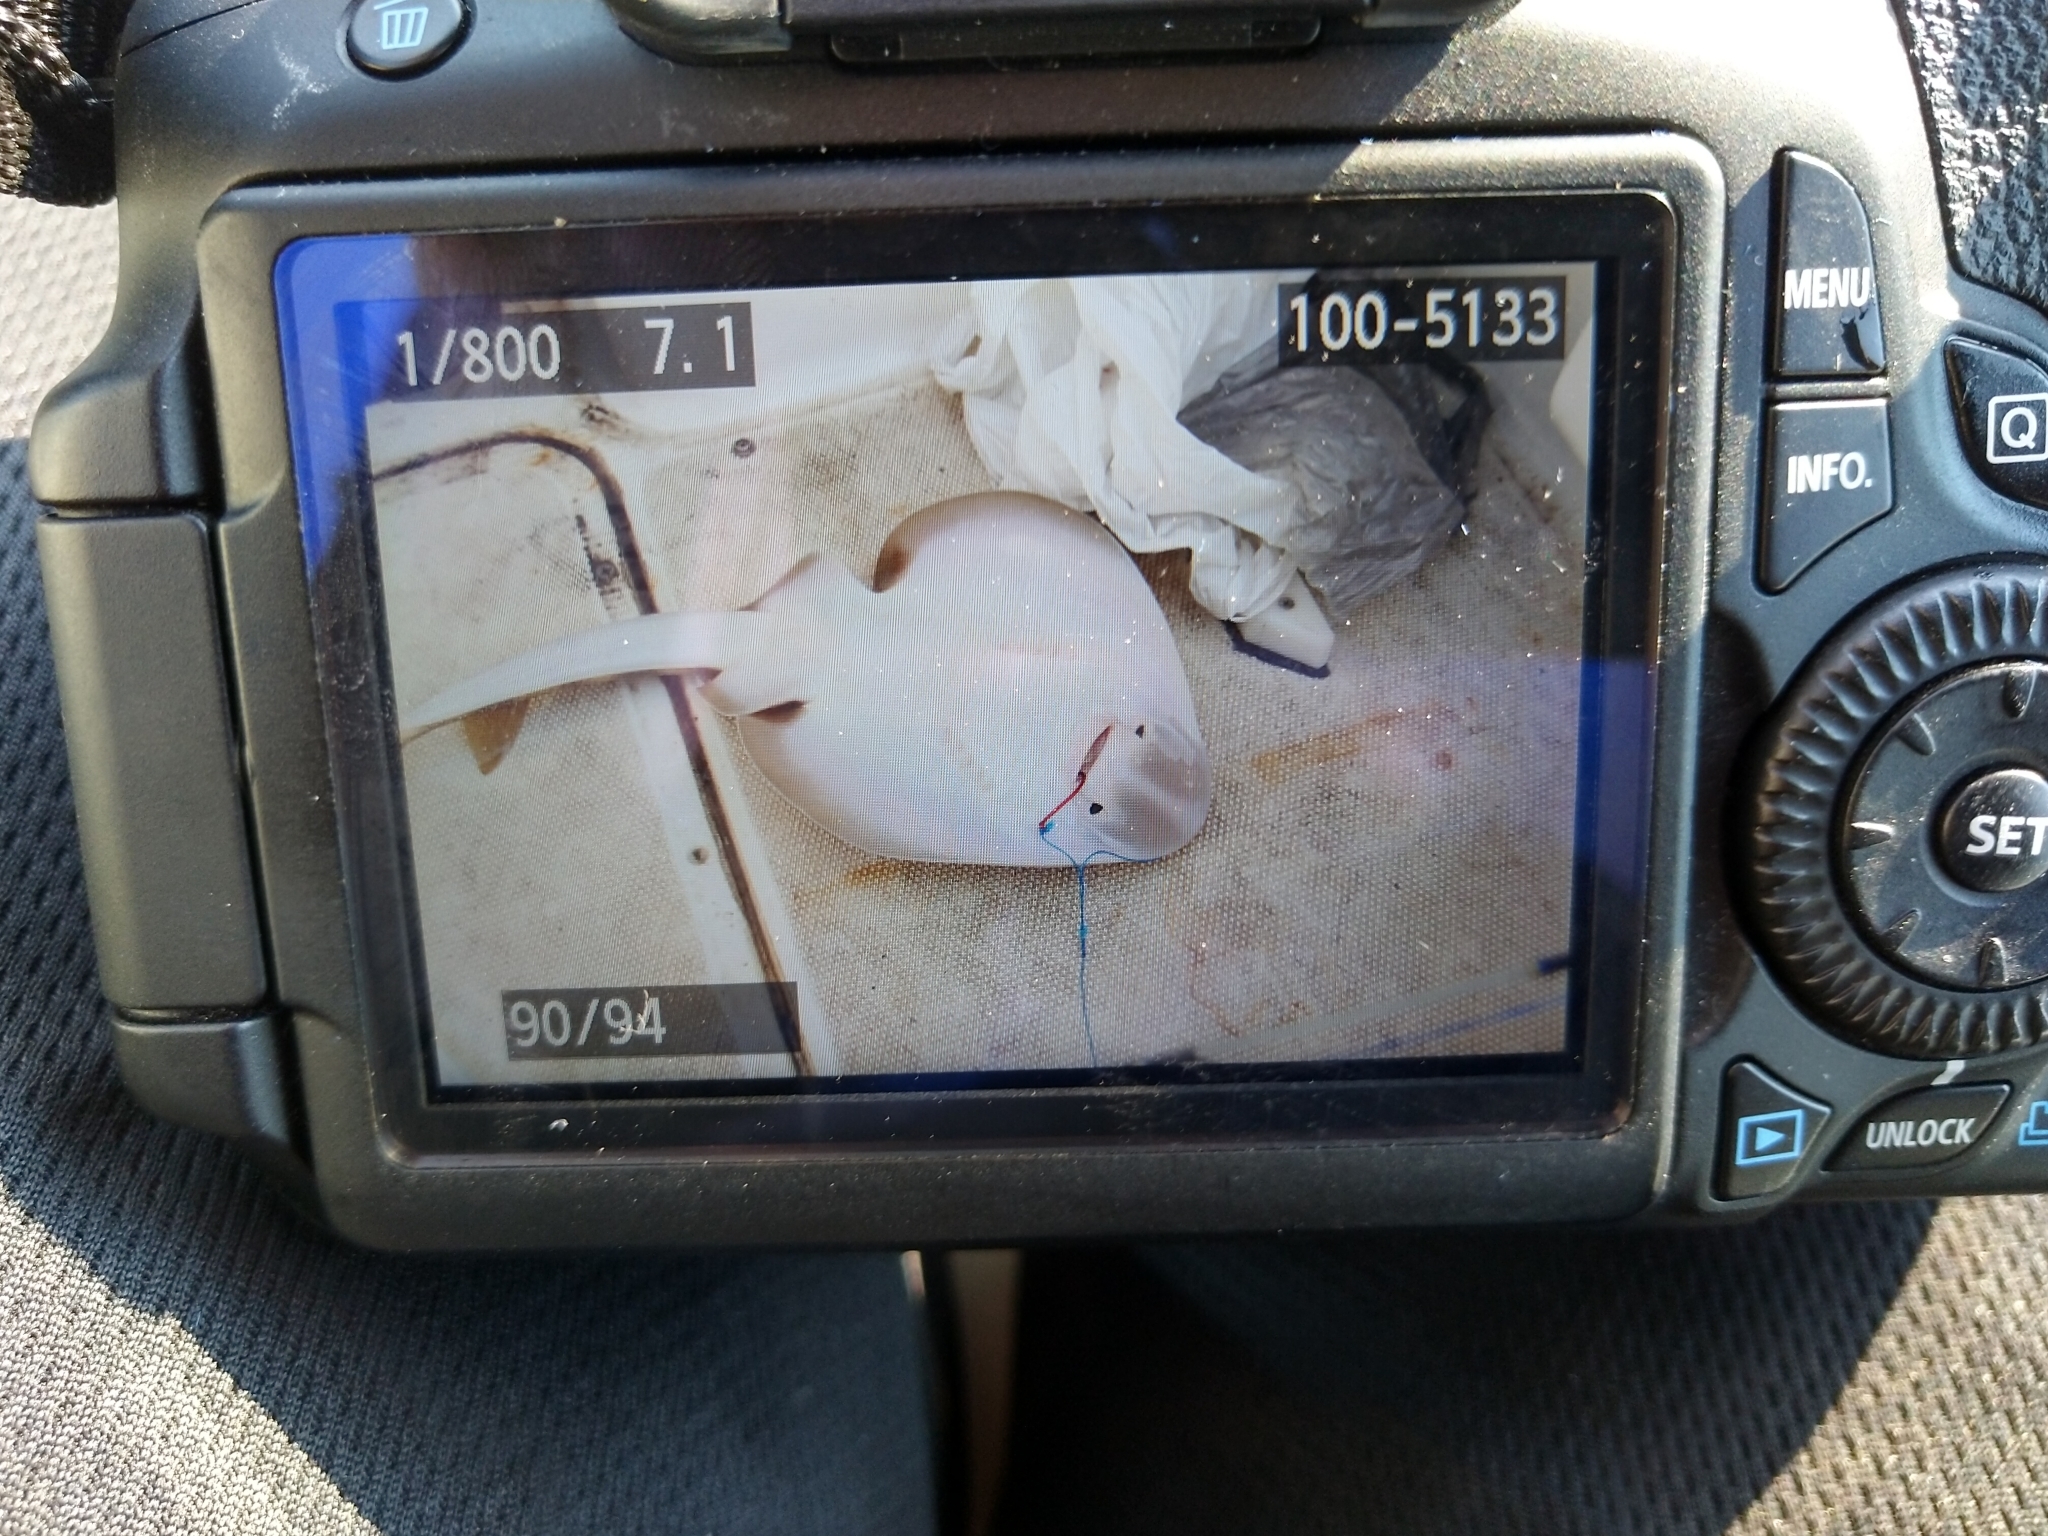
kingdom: Animalia
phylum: Chordata
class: Elasmobranchii
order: Rhinopristiformes
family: Rhinobatidae
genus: Trygonorrhina
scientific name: Trygonorrhina dumerilii
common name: Banjo shark
